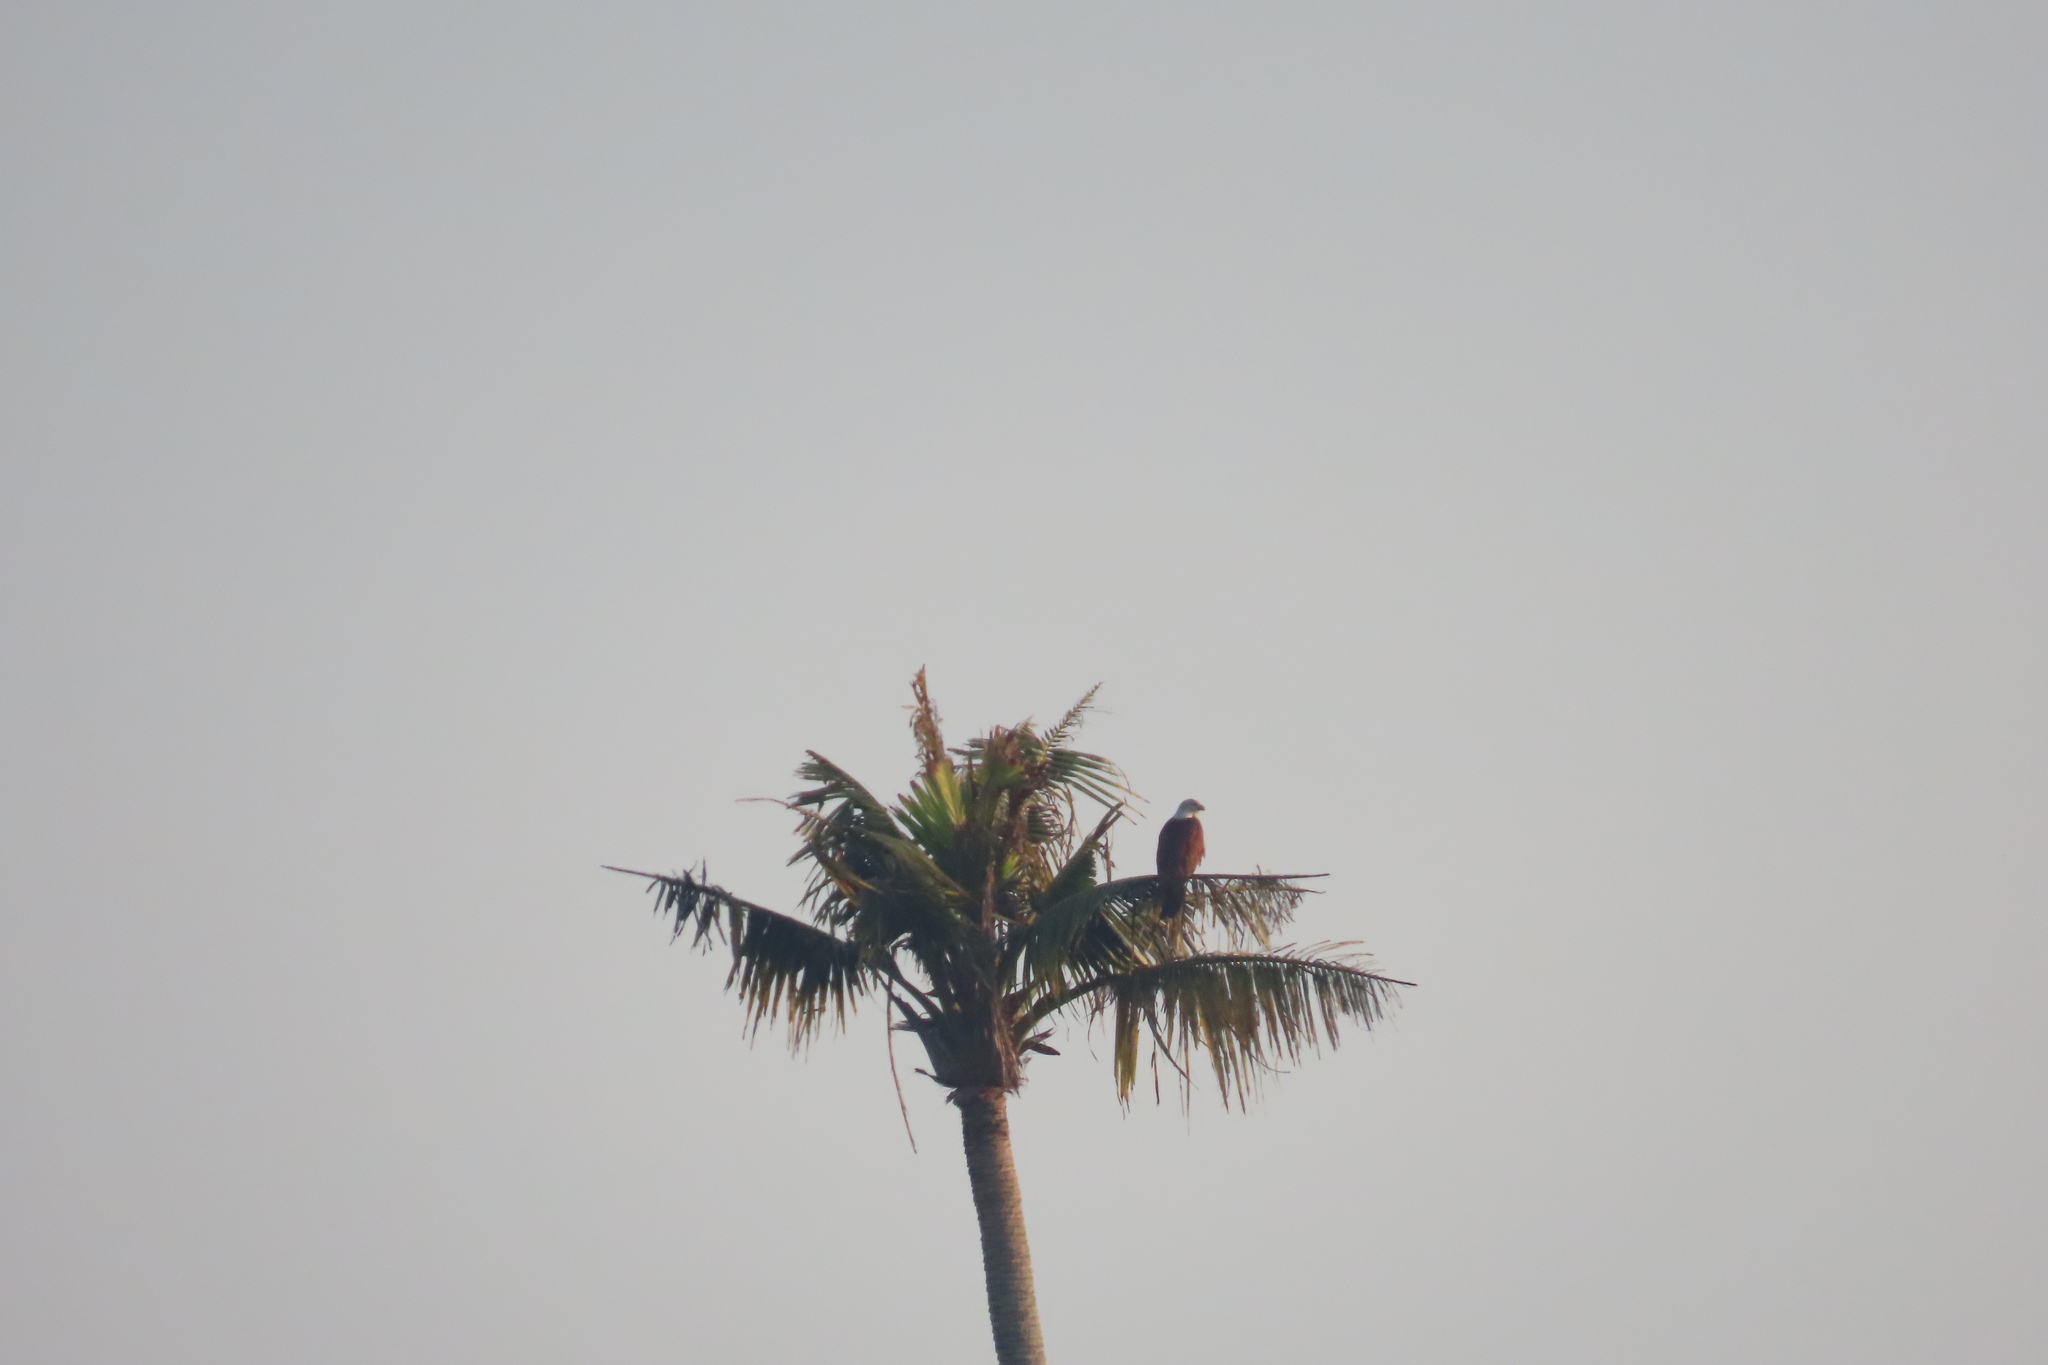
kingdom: Animalia
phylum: Chordata
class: Aves
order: Accipitriformes
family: Accipitridae
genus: Haliastur
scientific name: Haliastur indus
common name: Brahminy kite
